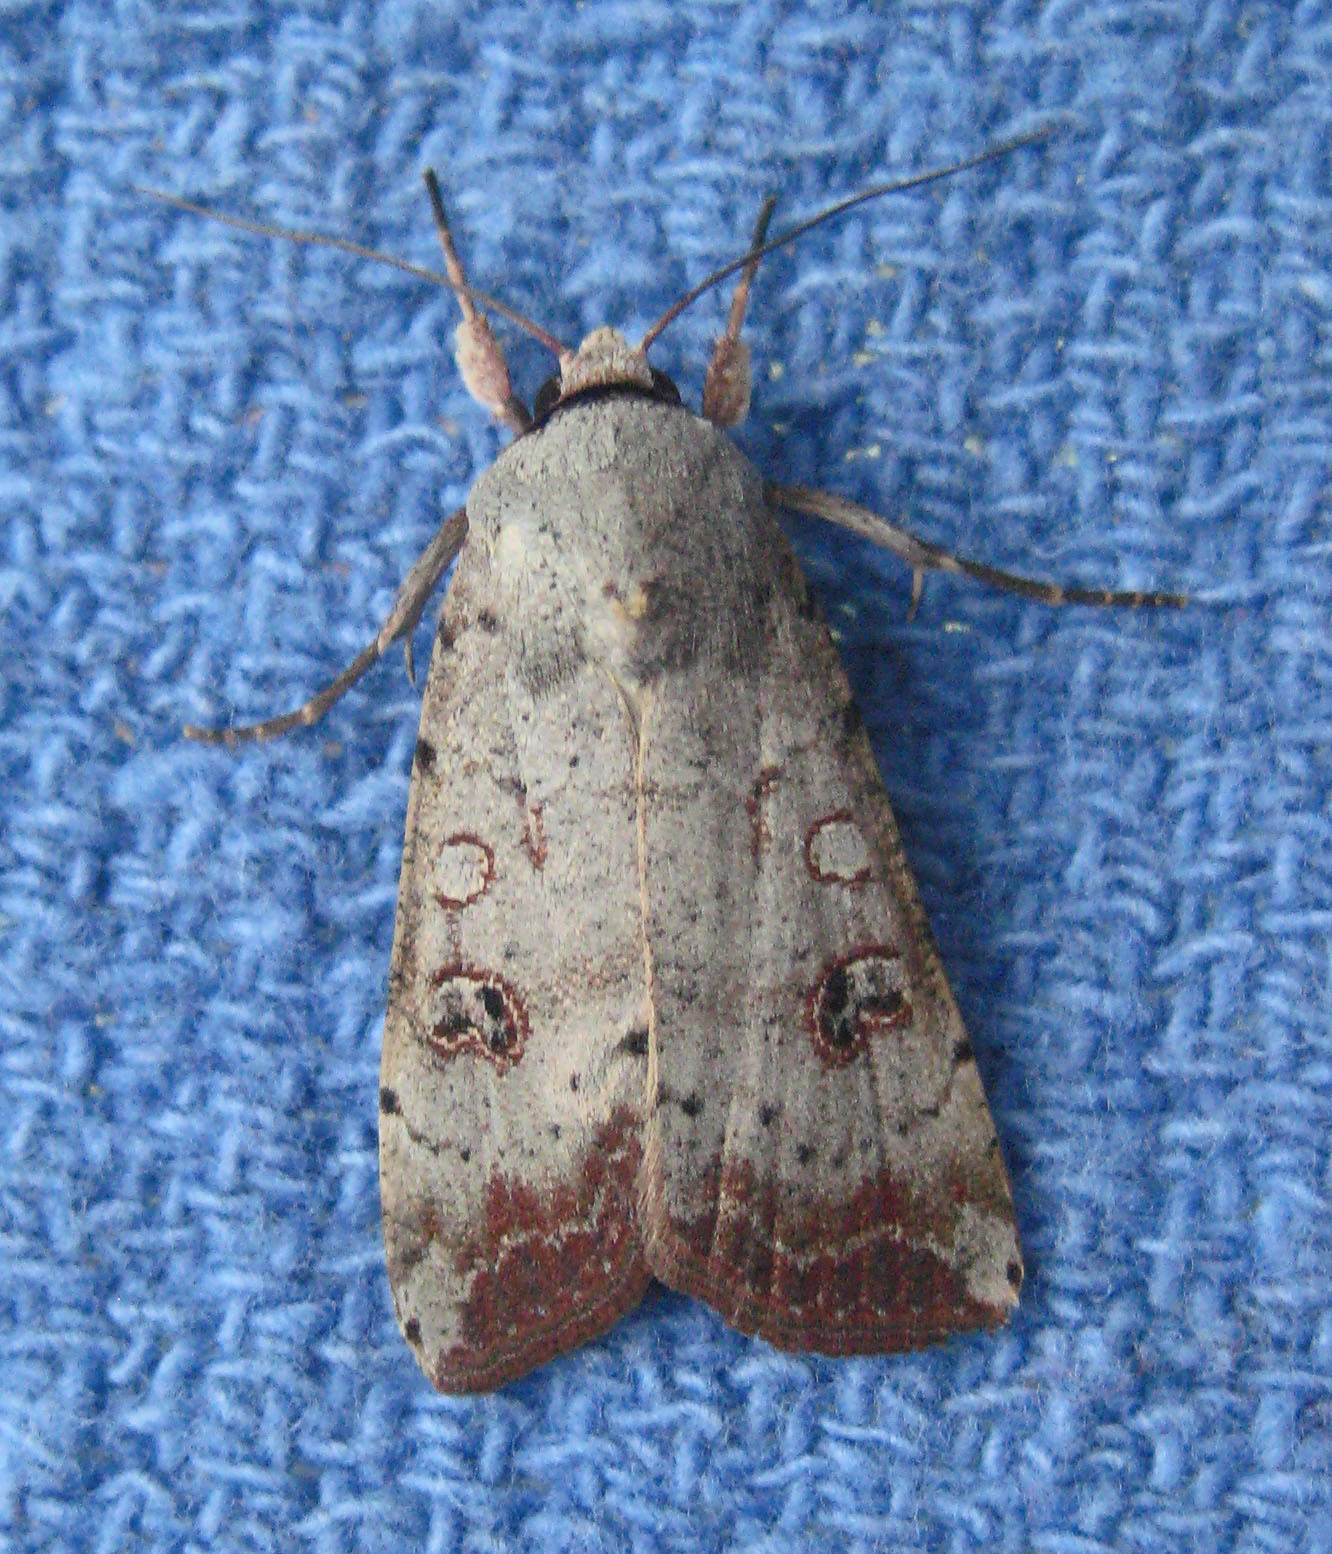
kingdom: Animalia
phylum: Arthropoda
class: Insecta
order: Lepidoptera
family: Noctuidae
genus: Anicla
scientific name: Anicla infecta
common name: Green cutworm
